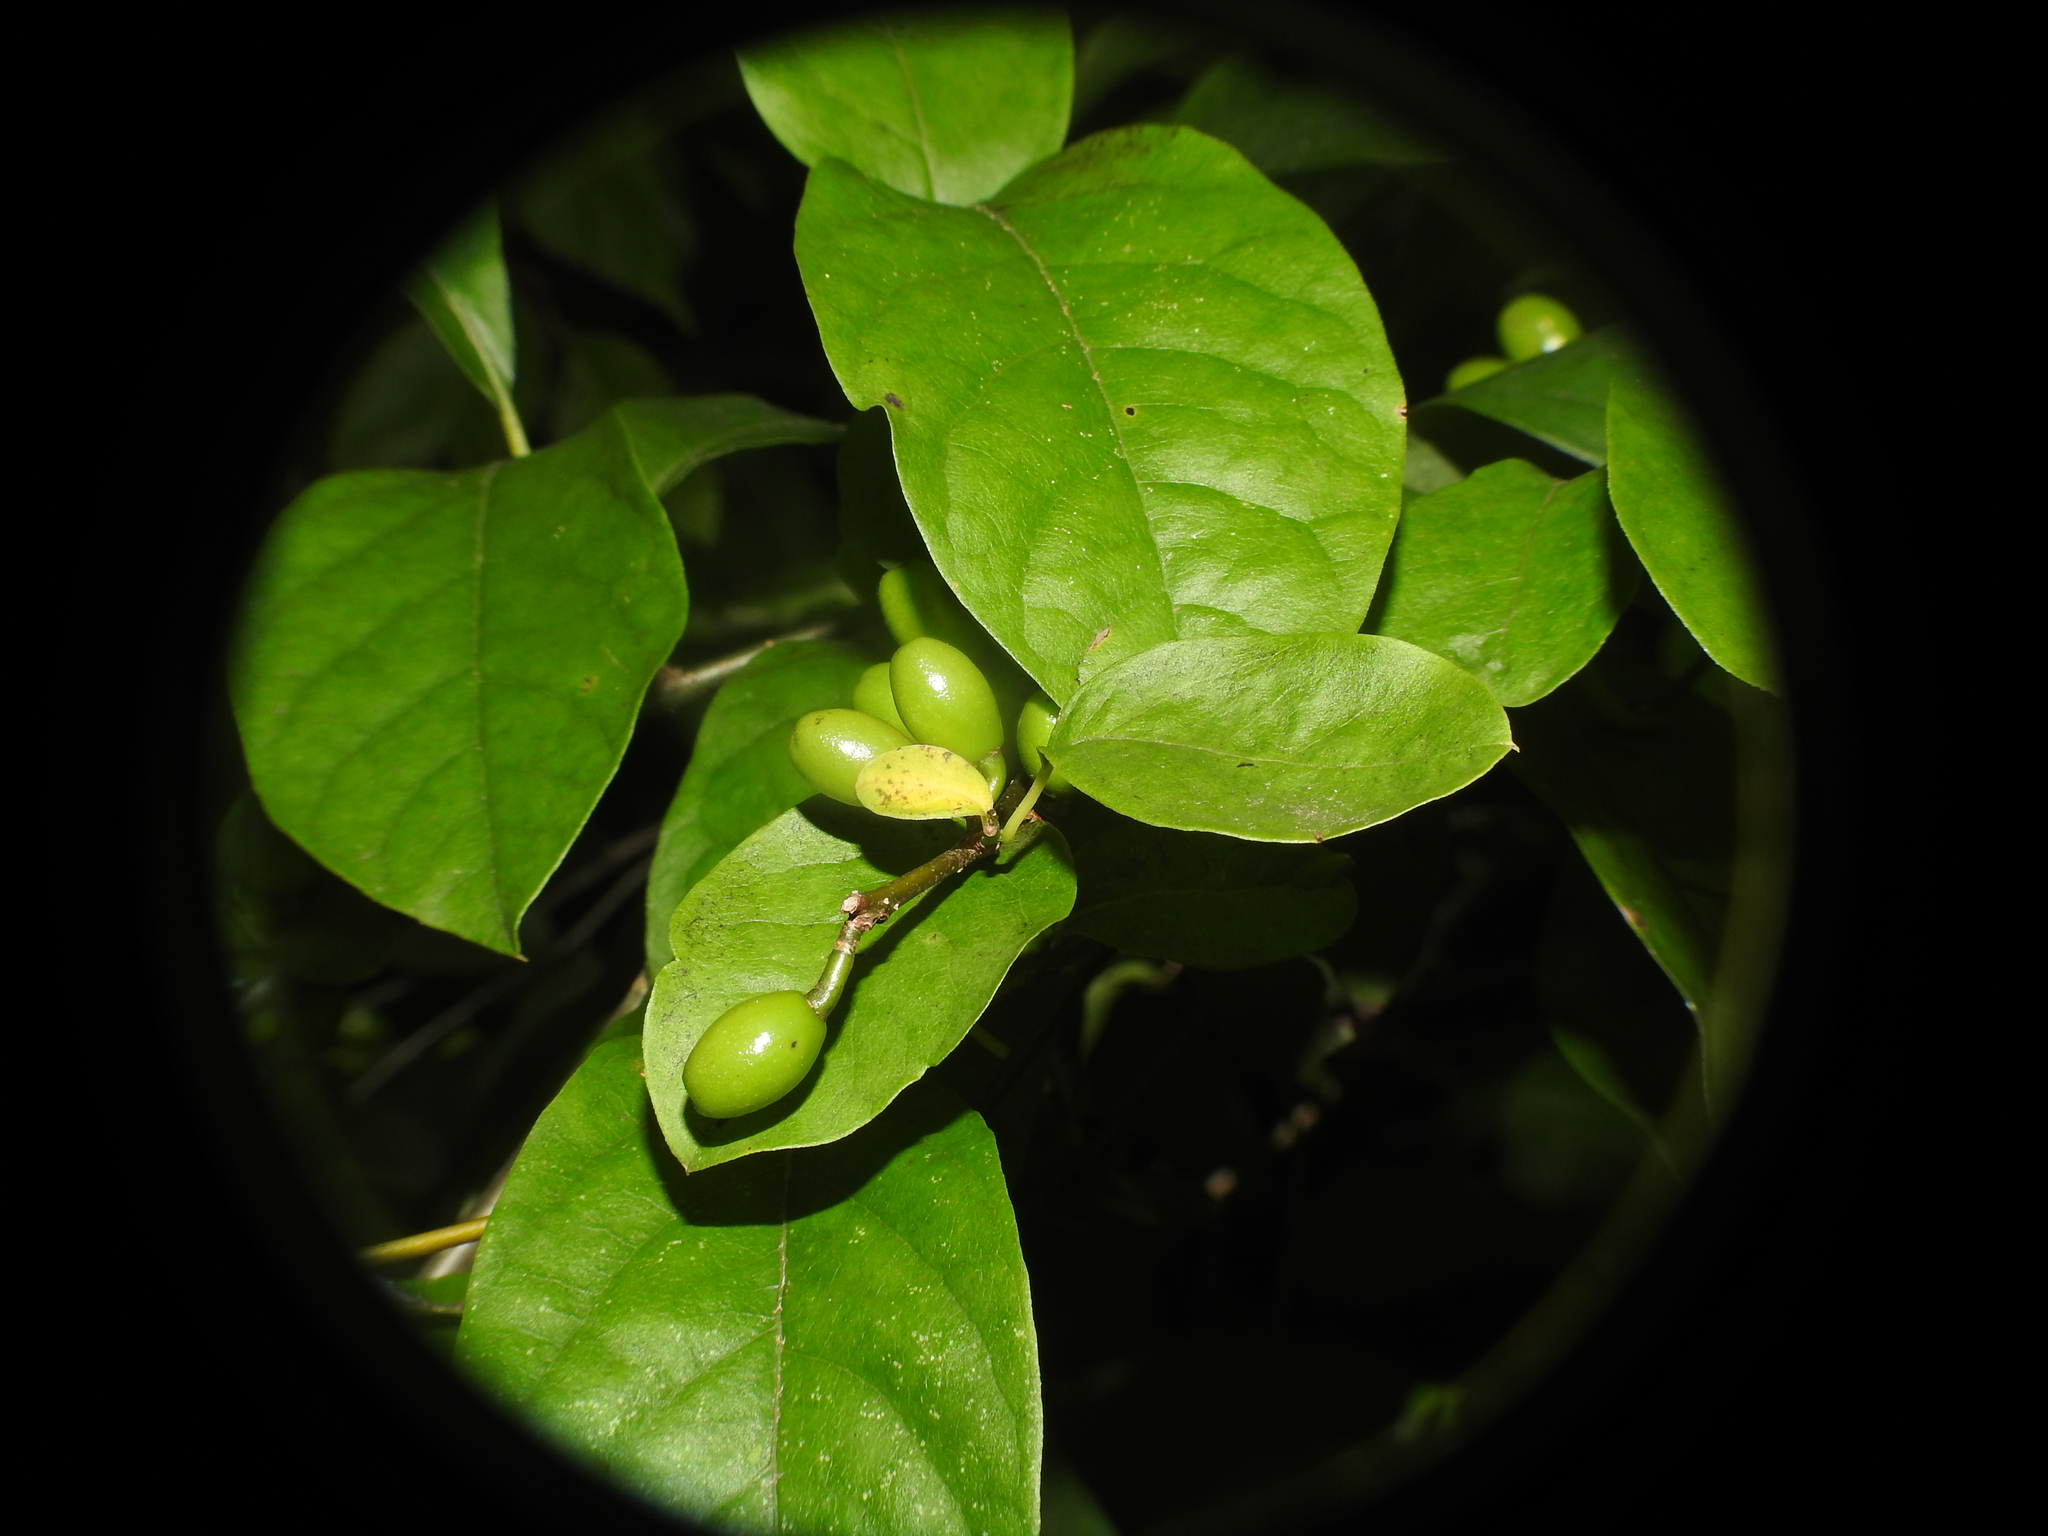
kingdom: Plantae
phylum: Tracheophyta
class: Magnoliopsida
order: Laurales
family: Lauraceae
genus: Lindera
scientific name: Lindera benzoin
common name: Spicebush
